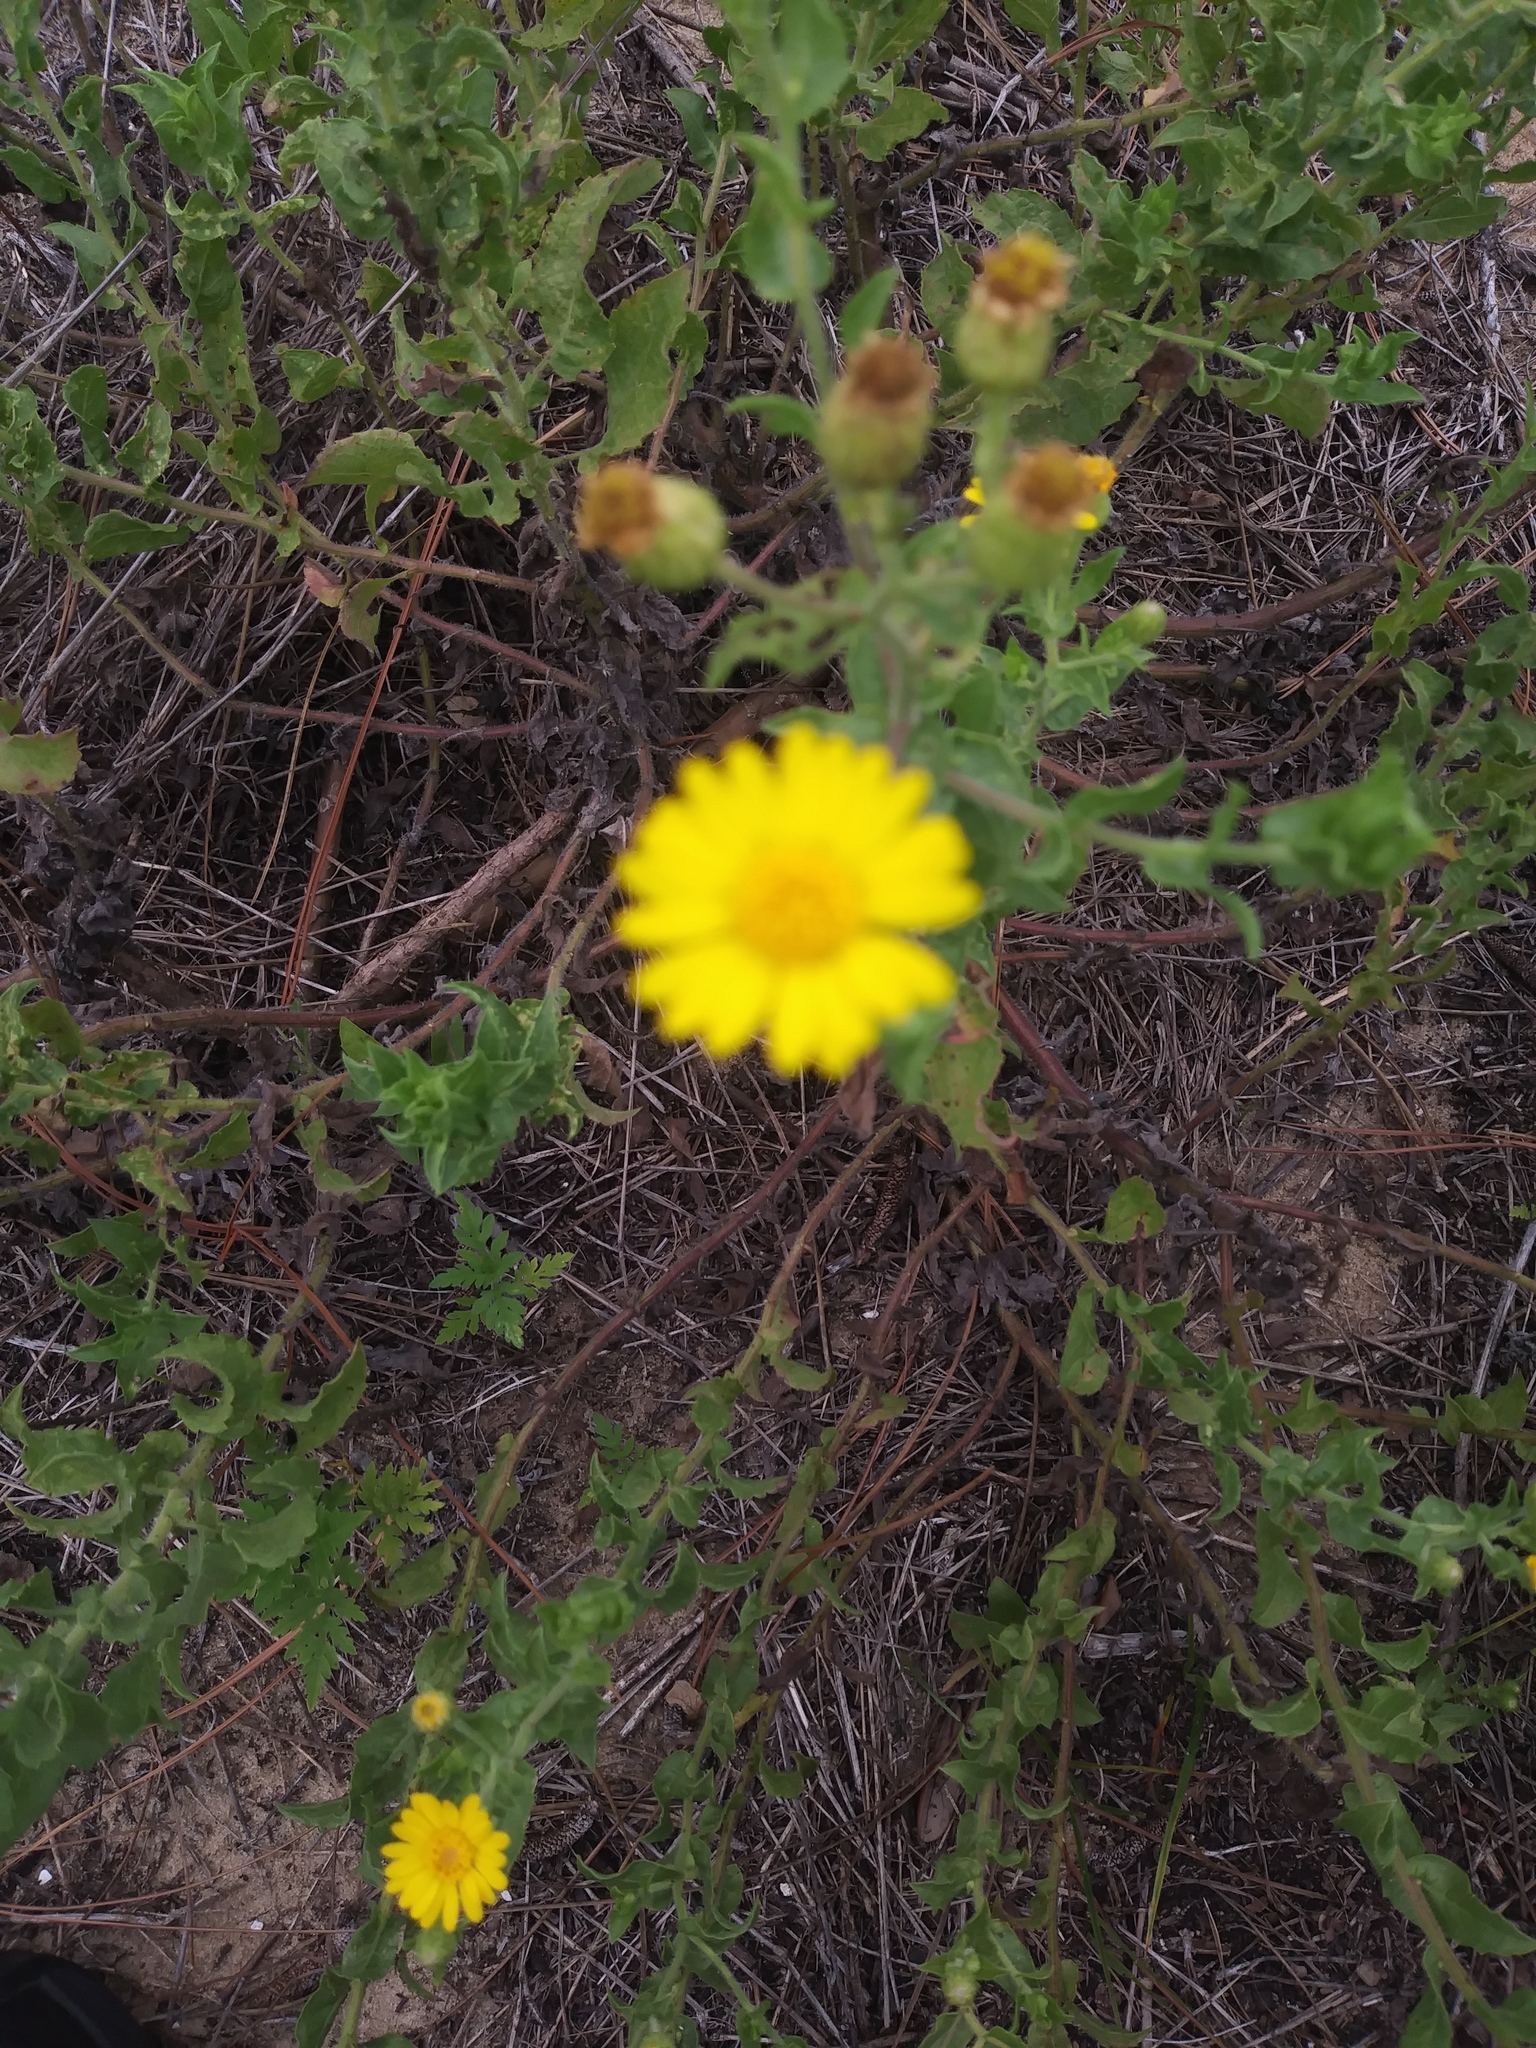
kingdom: Plantae
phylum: Tracheophyta
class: Magnoliopsida
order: Asterales
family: Asteraceae
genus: Heterotheca
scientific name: Heterotheca subaxillaris
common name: Camphorweed
